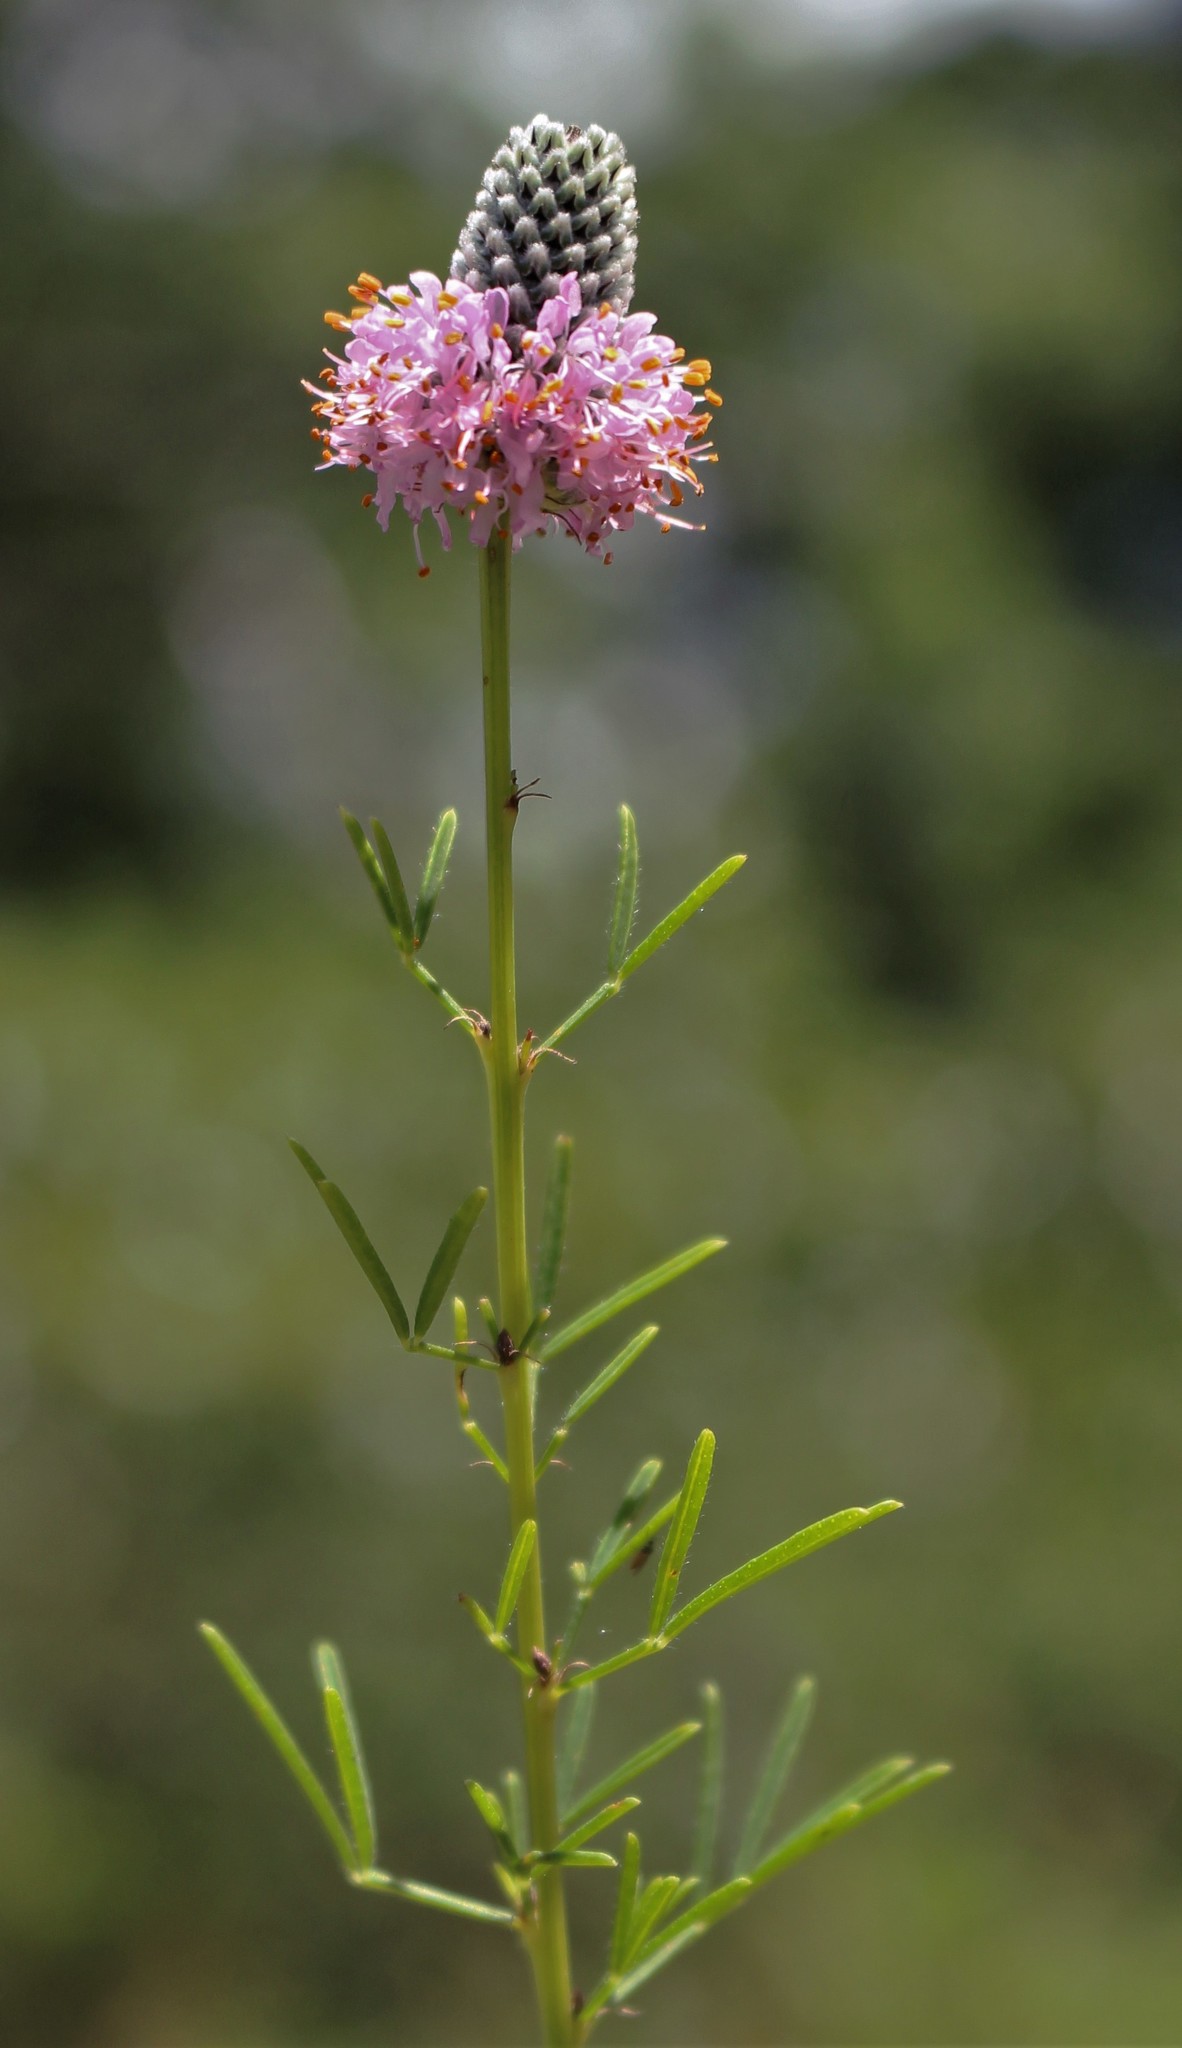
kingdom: Plantae
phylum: Tracheophyta
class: Magnoliopsida
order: Fabales
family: Fabaceae
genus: Dalea
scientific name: Dalea purpurea
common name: Purple prairie-clover
